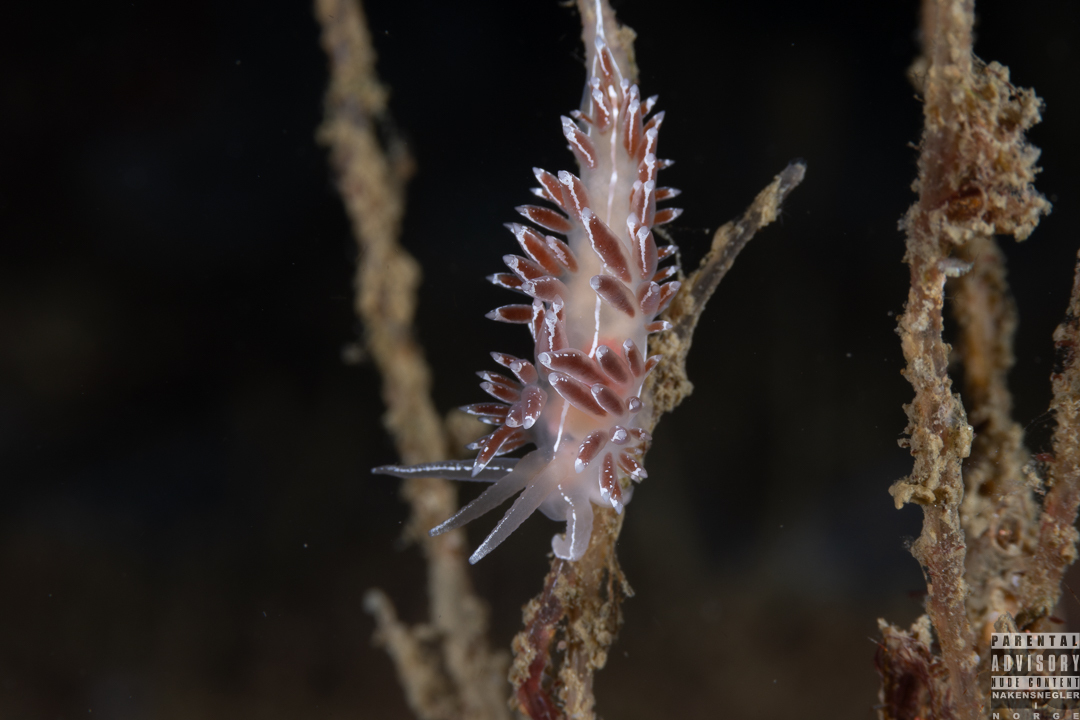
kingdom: Animalia
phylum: Mollusca
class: Gastropoda
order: Nudibranchia
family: Coryphellidae
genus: Coryphella
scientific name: Coryphella lineata
